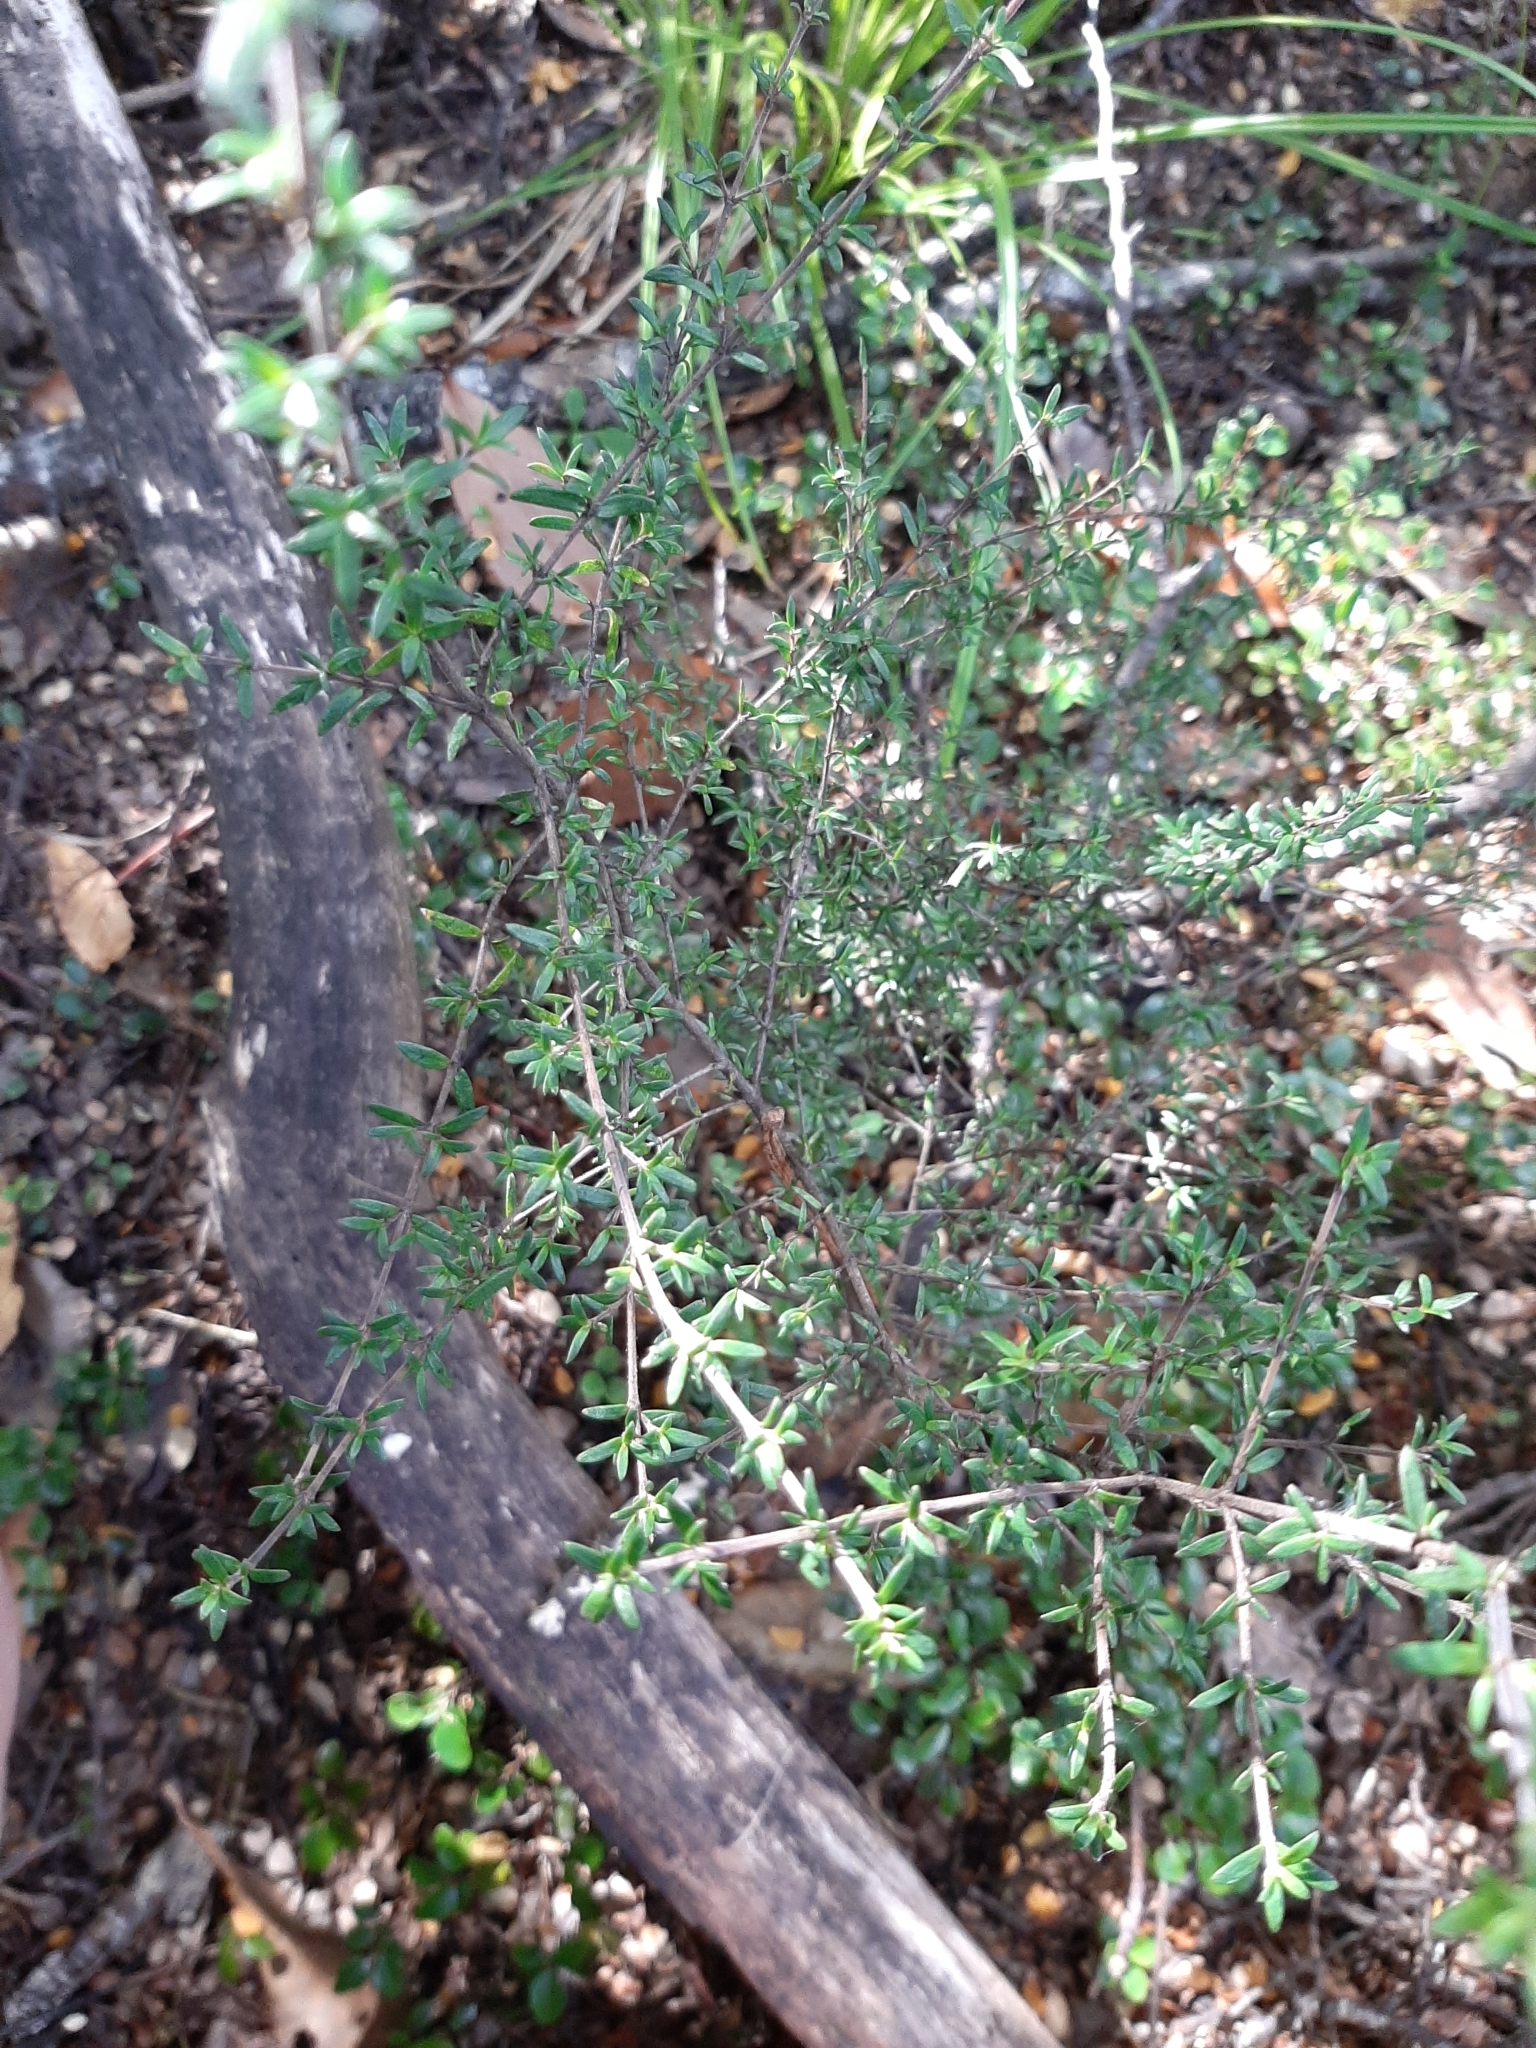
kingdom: Plantae
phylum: Tracheophyta
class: Magnoliopsida
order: Gentianales
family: Rubiaceae
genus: Coprosma
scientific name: Coprosma microcarpa
